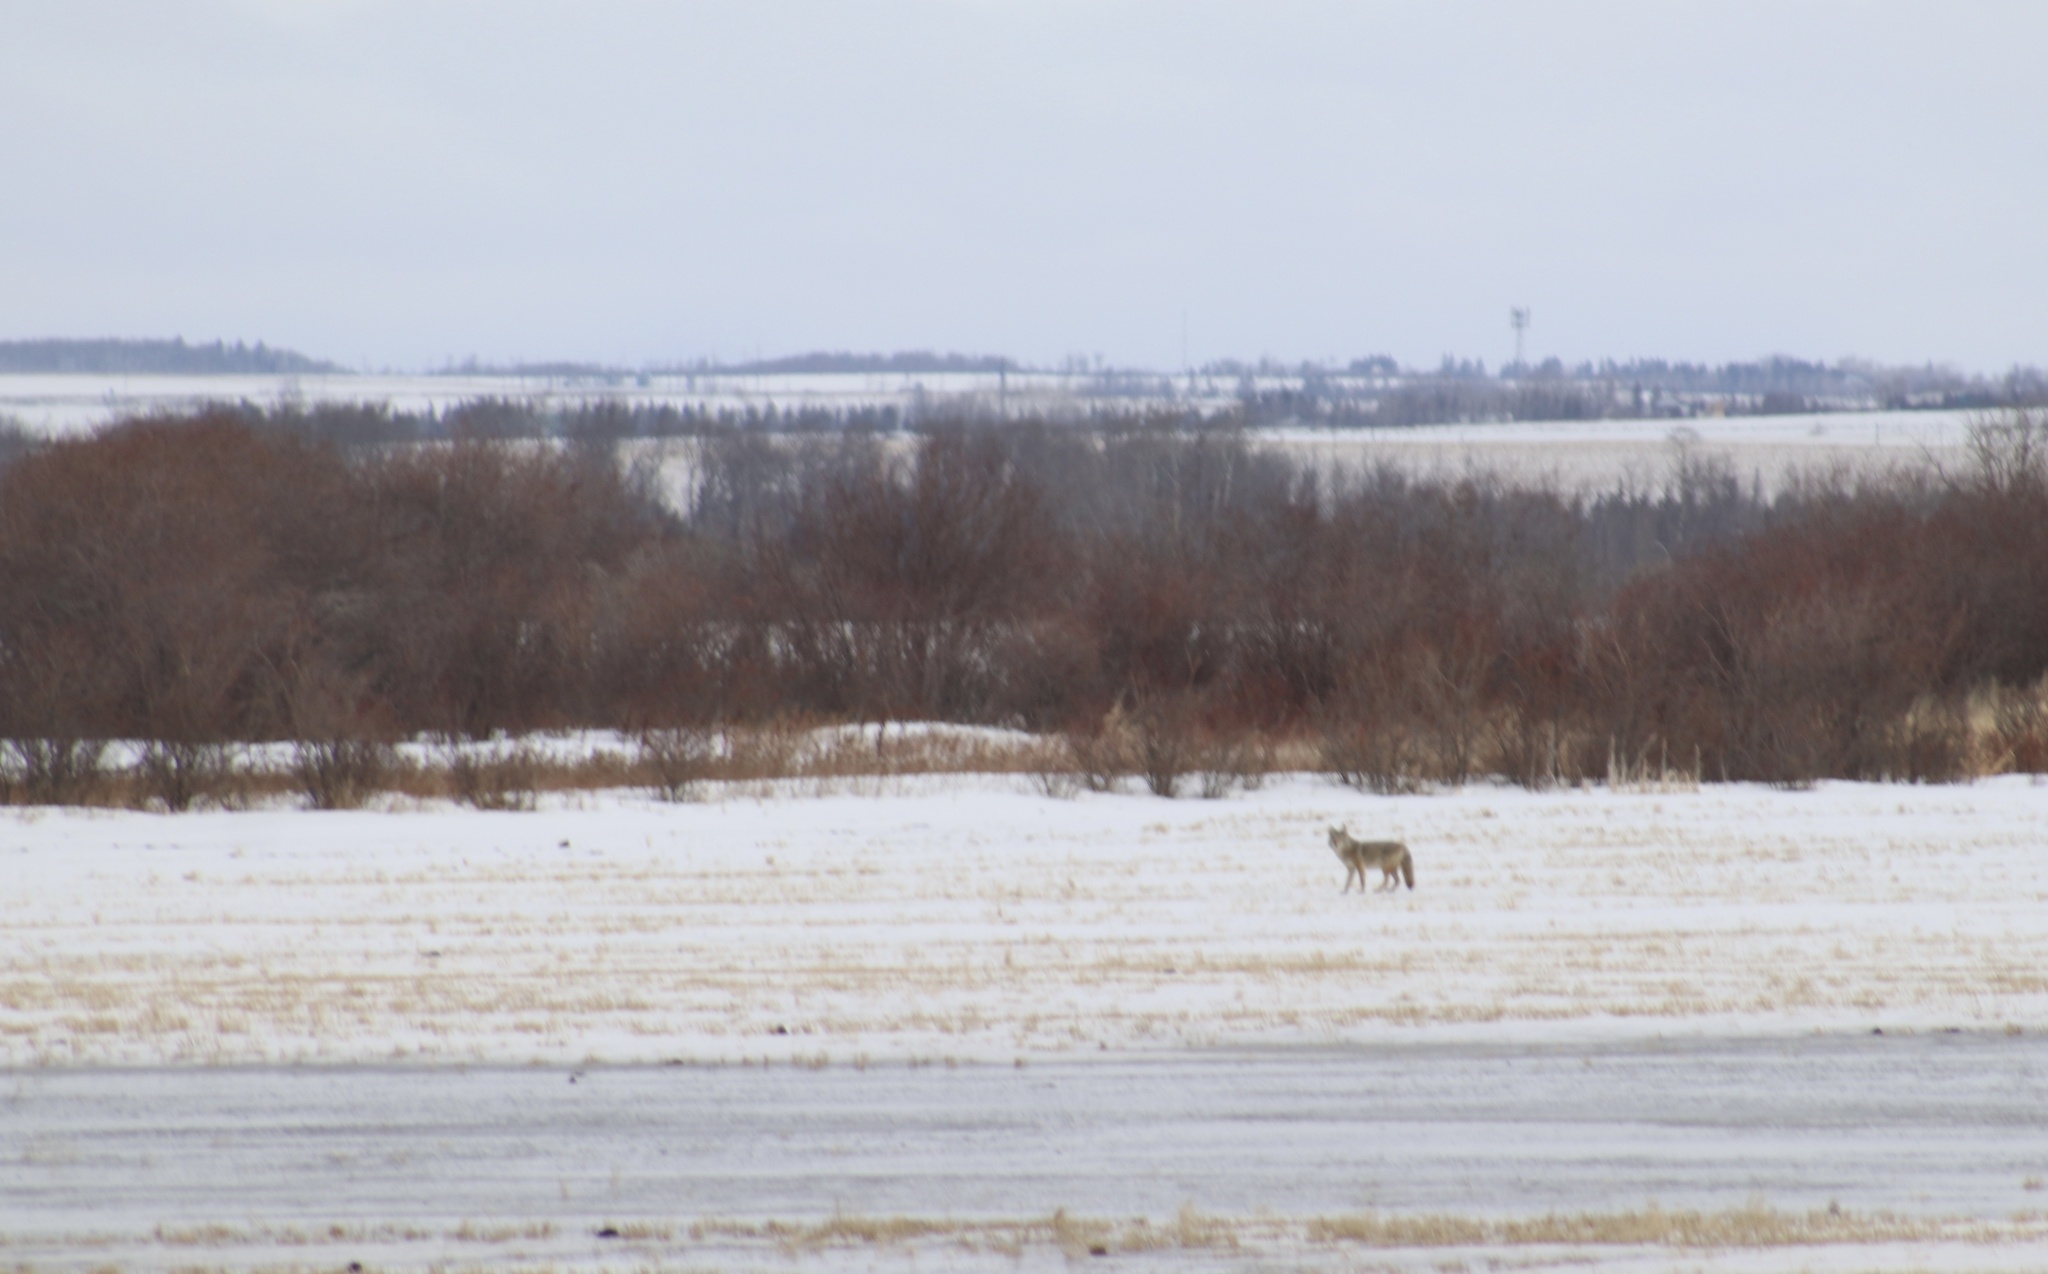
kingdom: Animalia
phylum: Chordata
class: Mammalia
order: Carnivora
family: Canidae
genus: Canis
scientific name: Canis latrans
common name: Coyote
